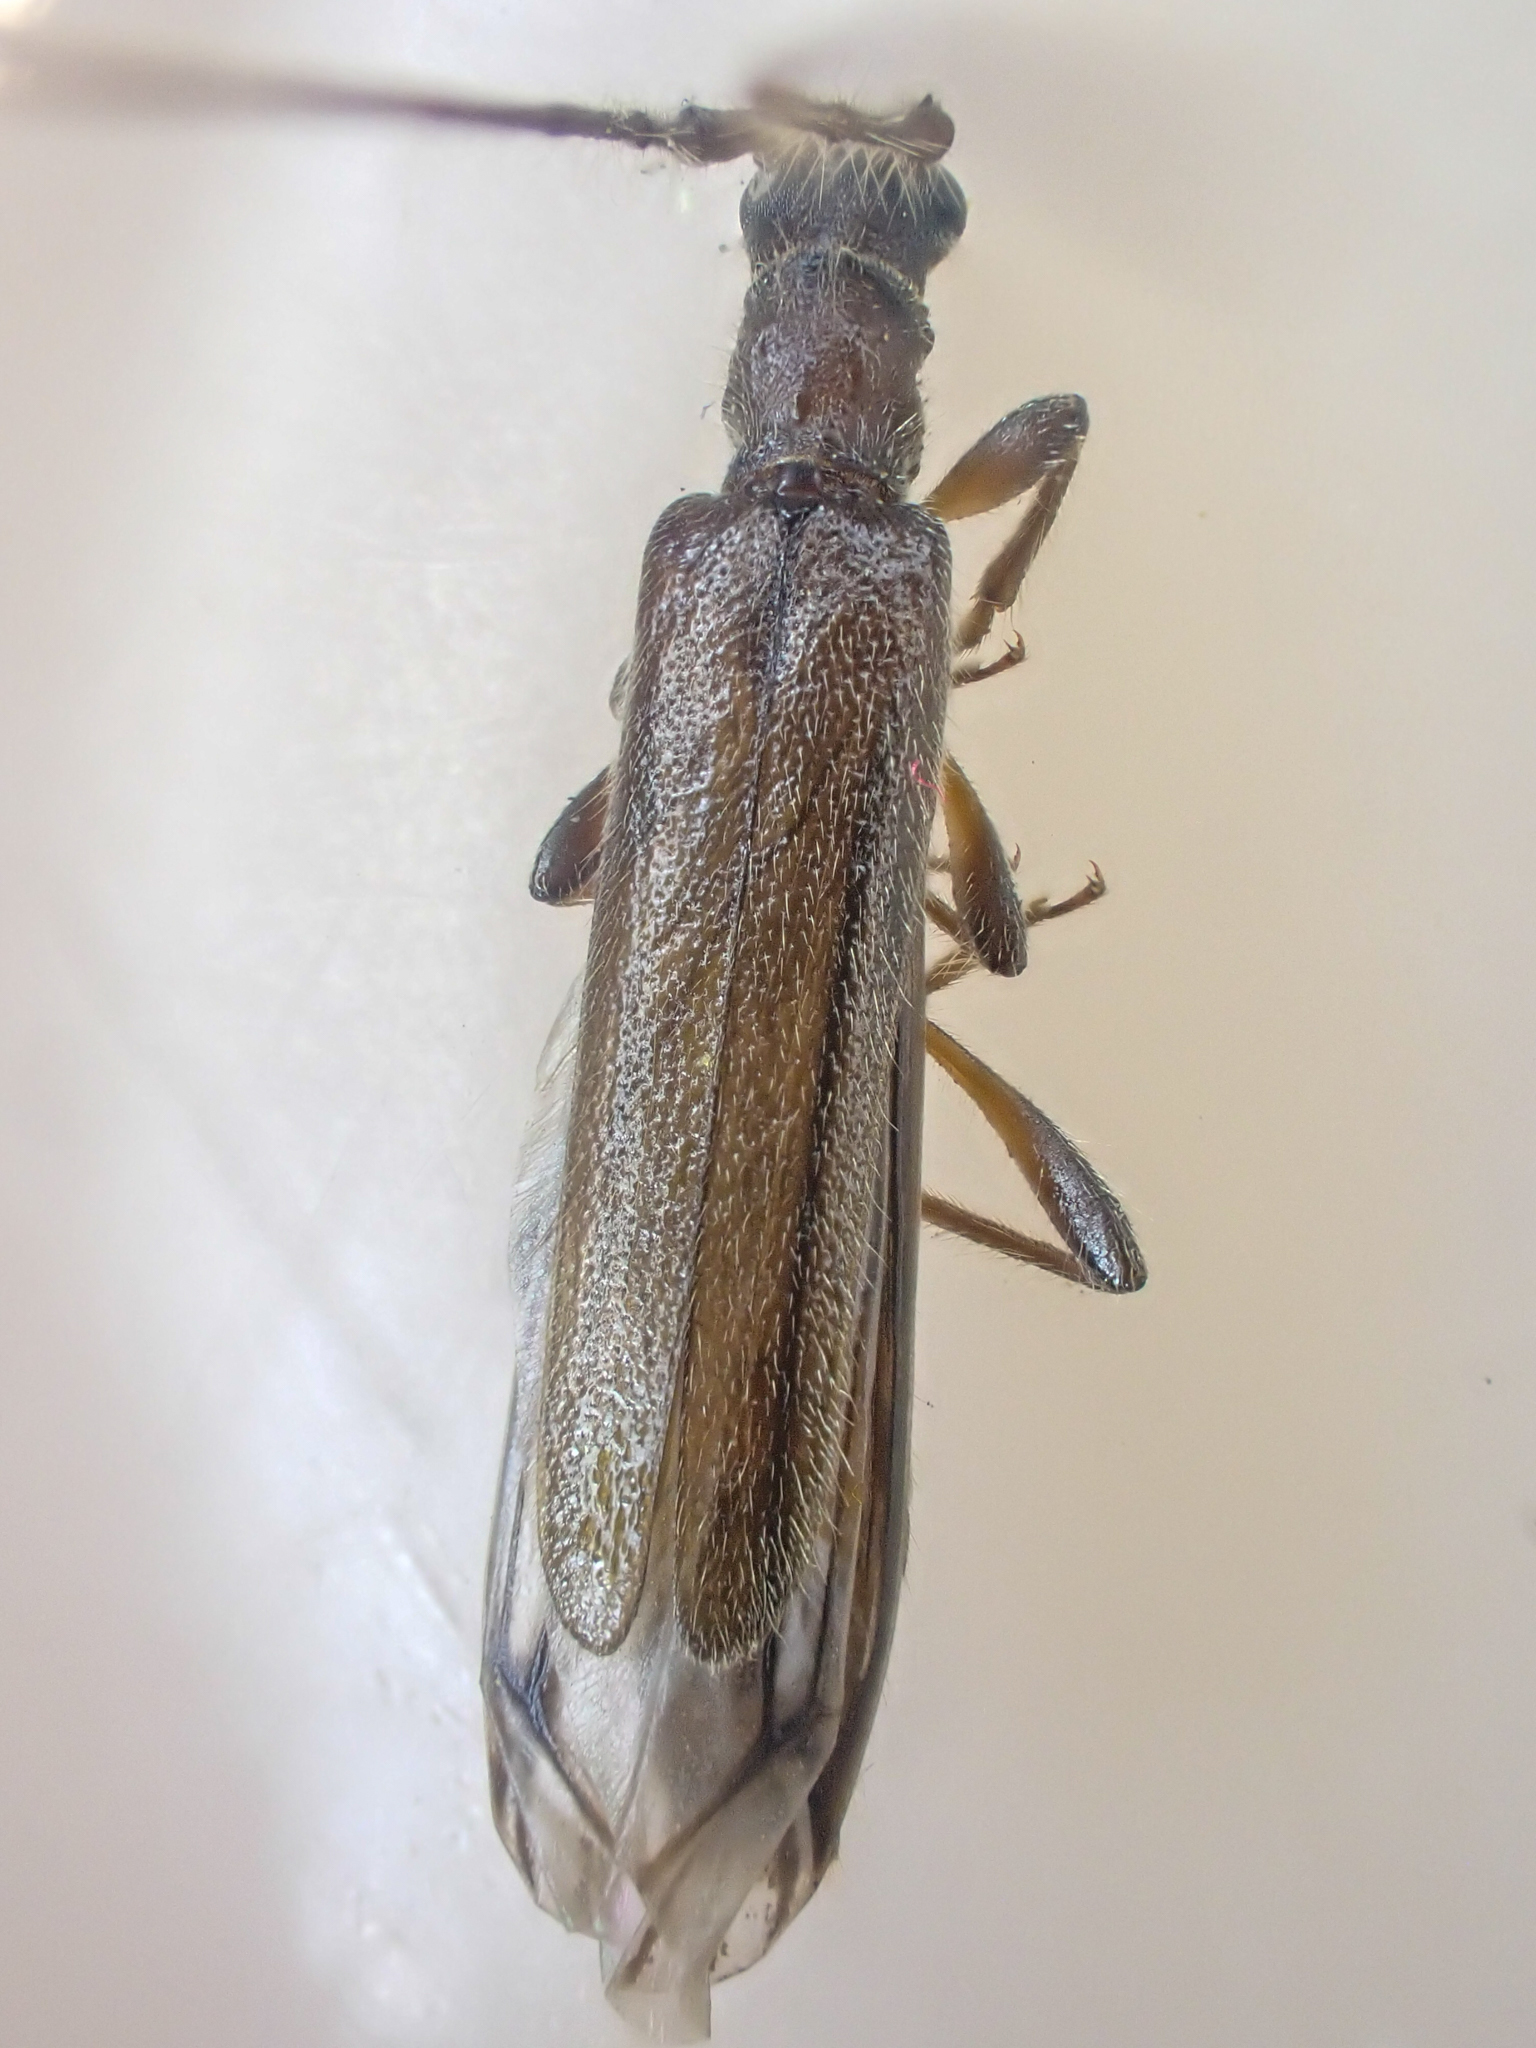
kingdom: Animalia
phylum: Arthropoda
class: Insecta
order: Coleoptera
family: Cerambycidae
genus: Styloxus
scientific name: Styloxus fulleri
